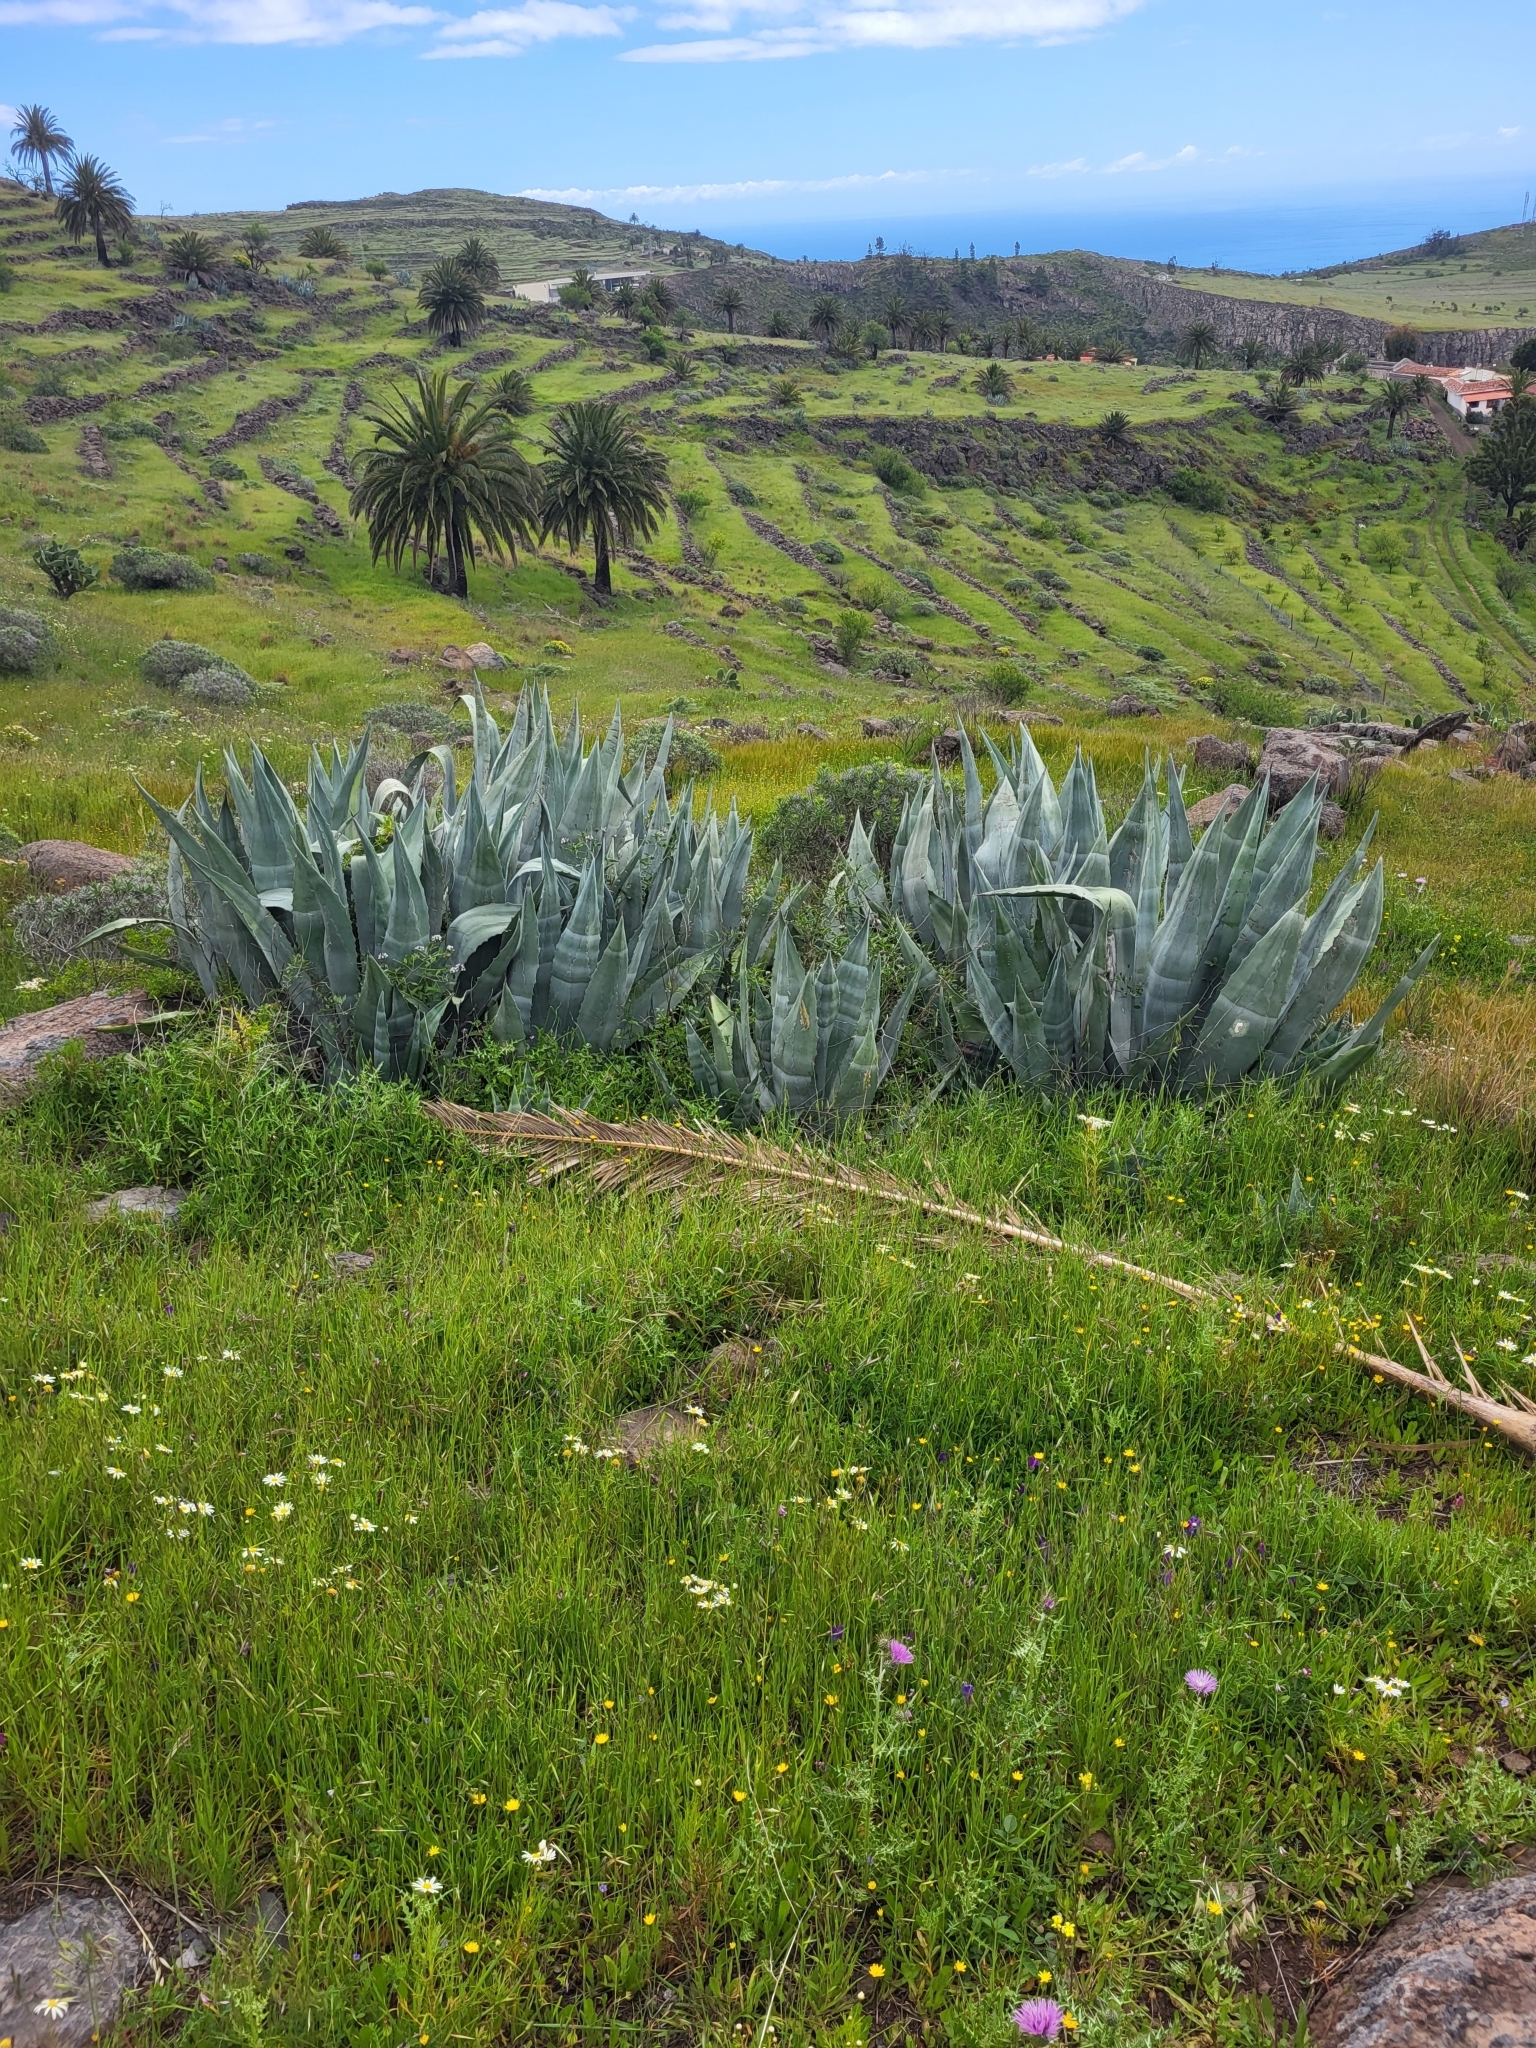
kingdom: Plantae
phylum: Tracheophyta
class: Liliopsida
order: Asparagales
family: Asparagaceae
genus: Agave
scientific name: Agave americana
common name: Centuryplant
